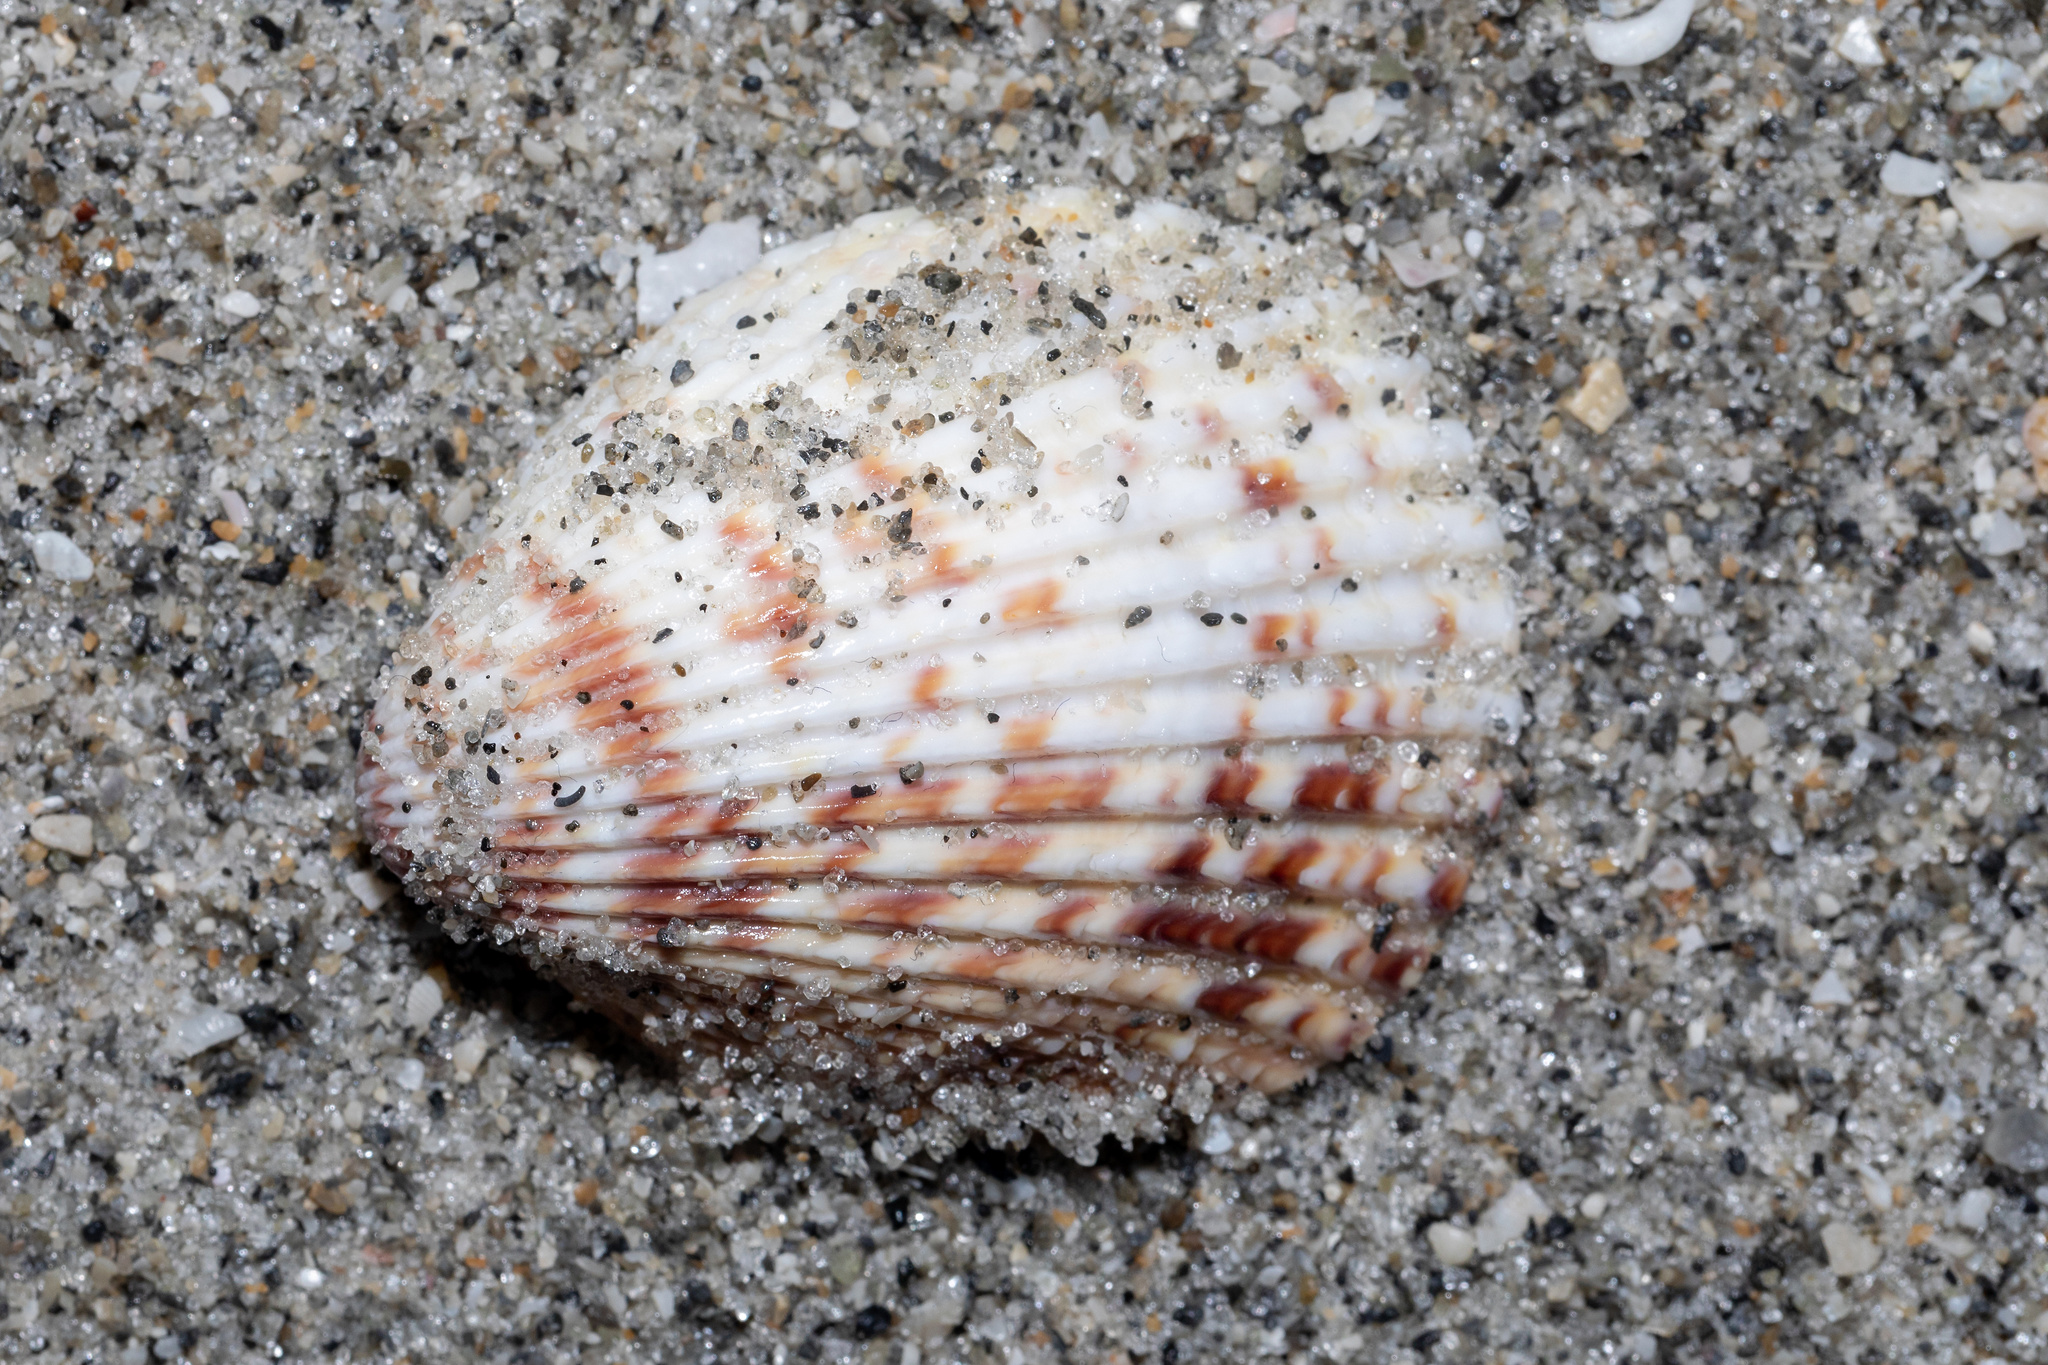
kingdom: Animalia
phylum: Mollusca
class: Bivalvia
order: Cardiida
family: Cardiidae
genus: Trachycardium
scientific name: Trachycardium egmontianum
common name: Florida pricklycockle
